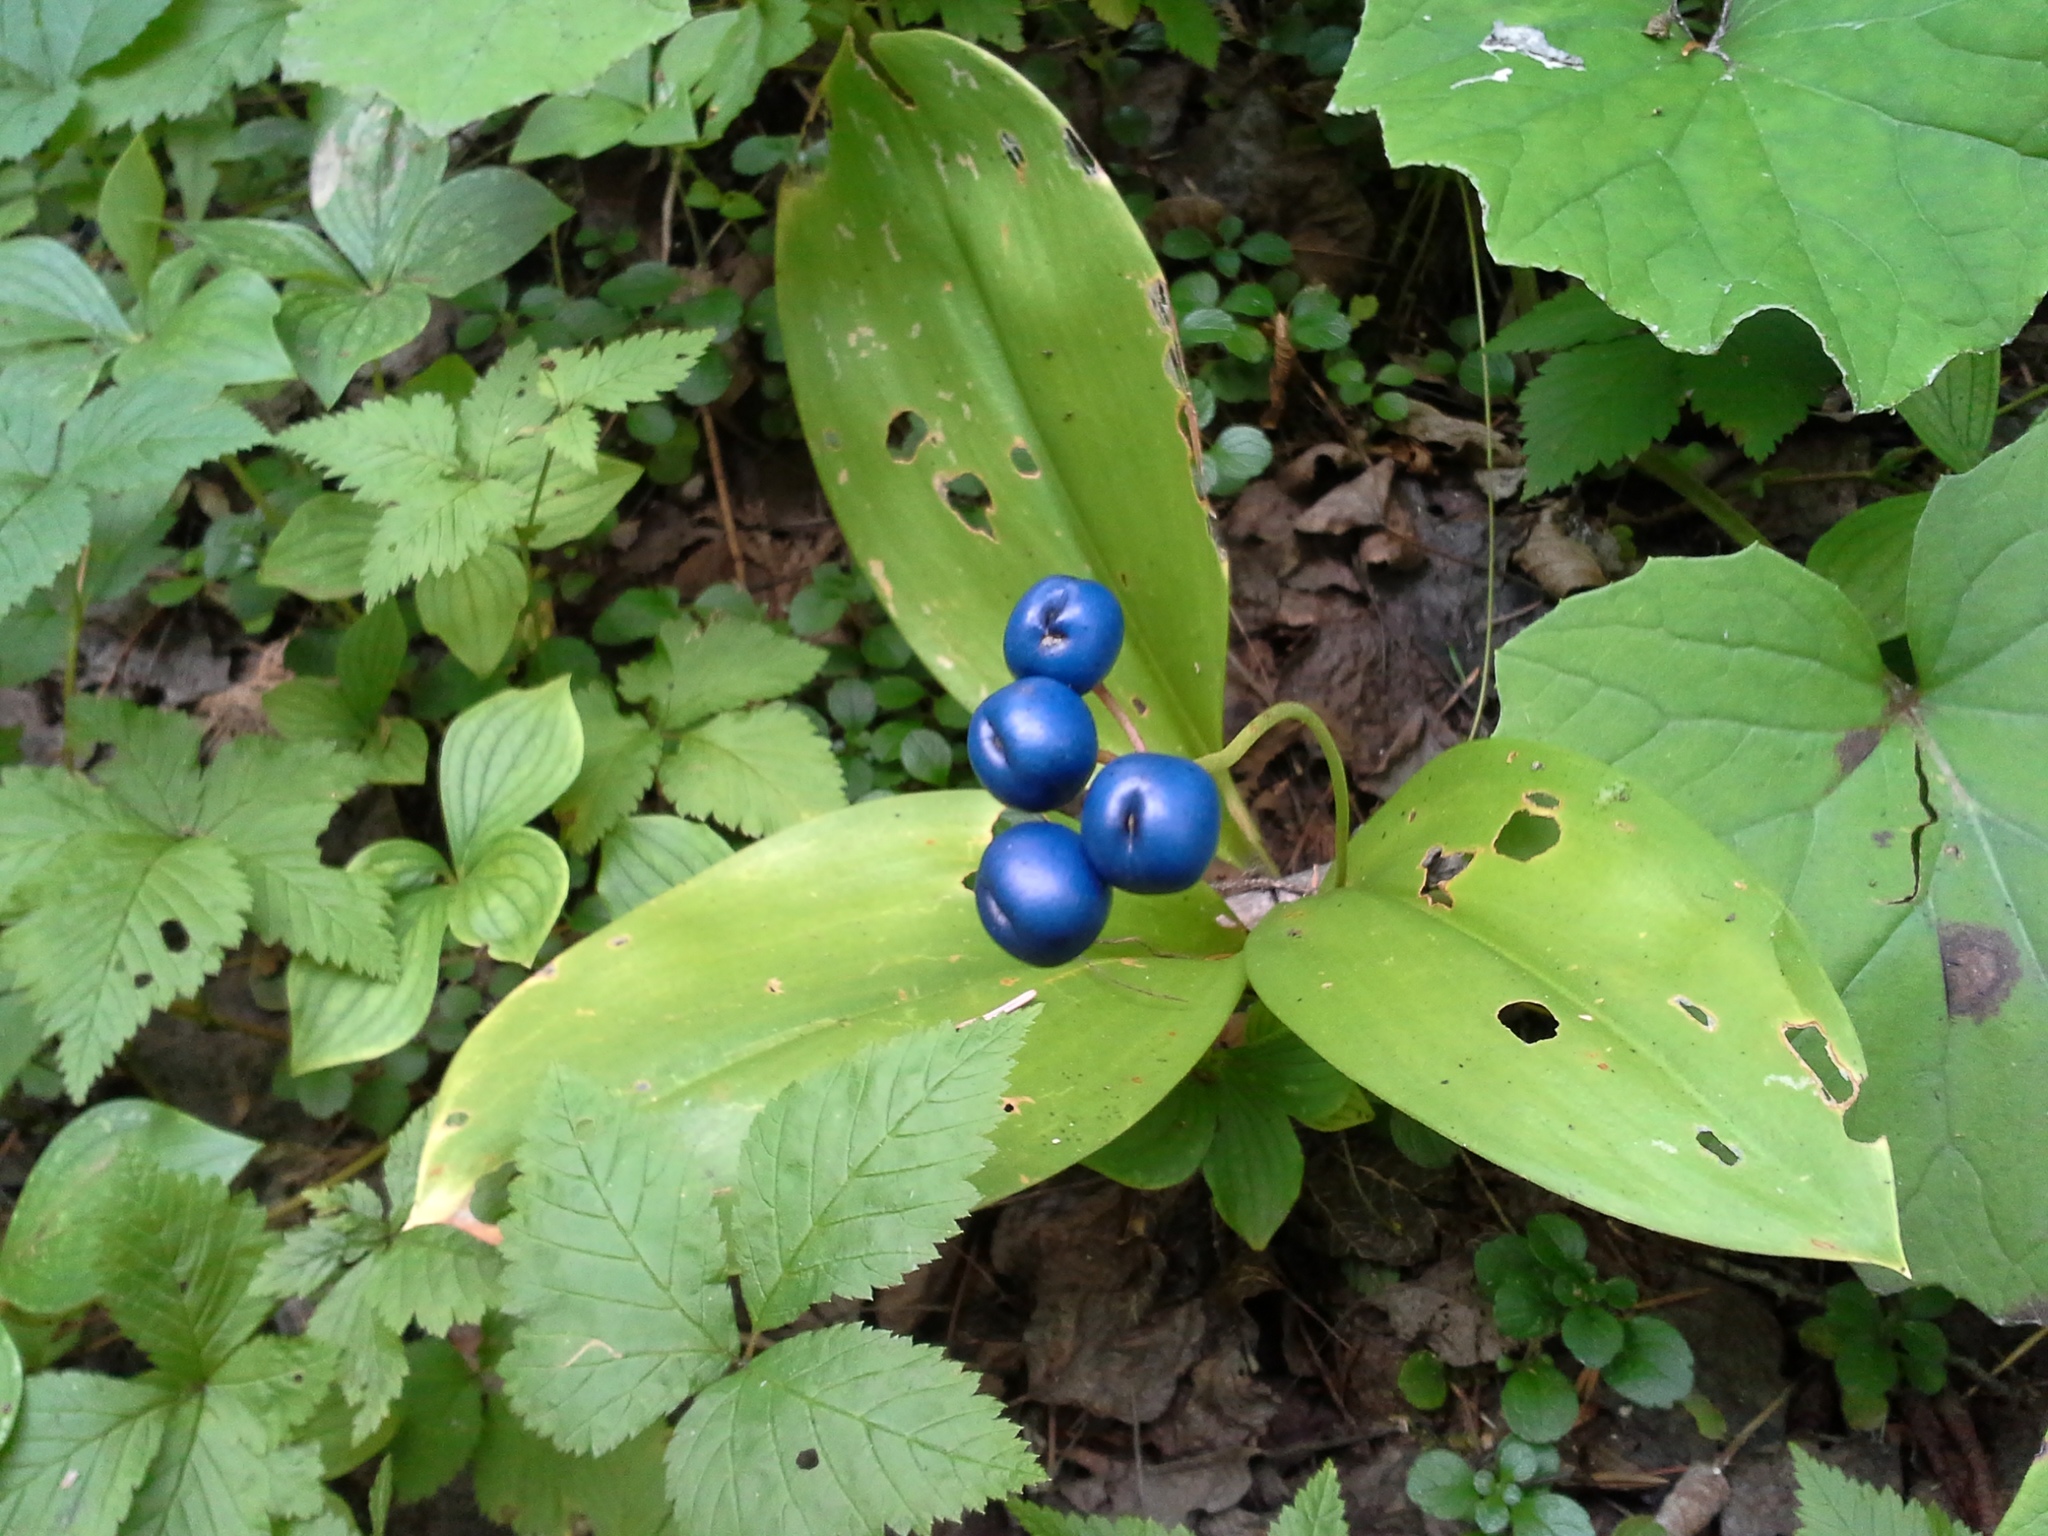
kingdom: Plantae
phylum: Tracheophyta
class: Liliopsida
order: Liliales
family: Liliaceae
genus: Clintonia
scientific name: Clintonia borealis
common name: Yellow clintonia
